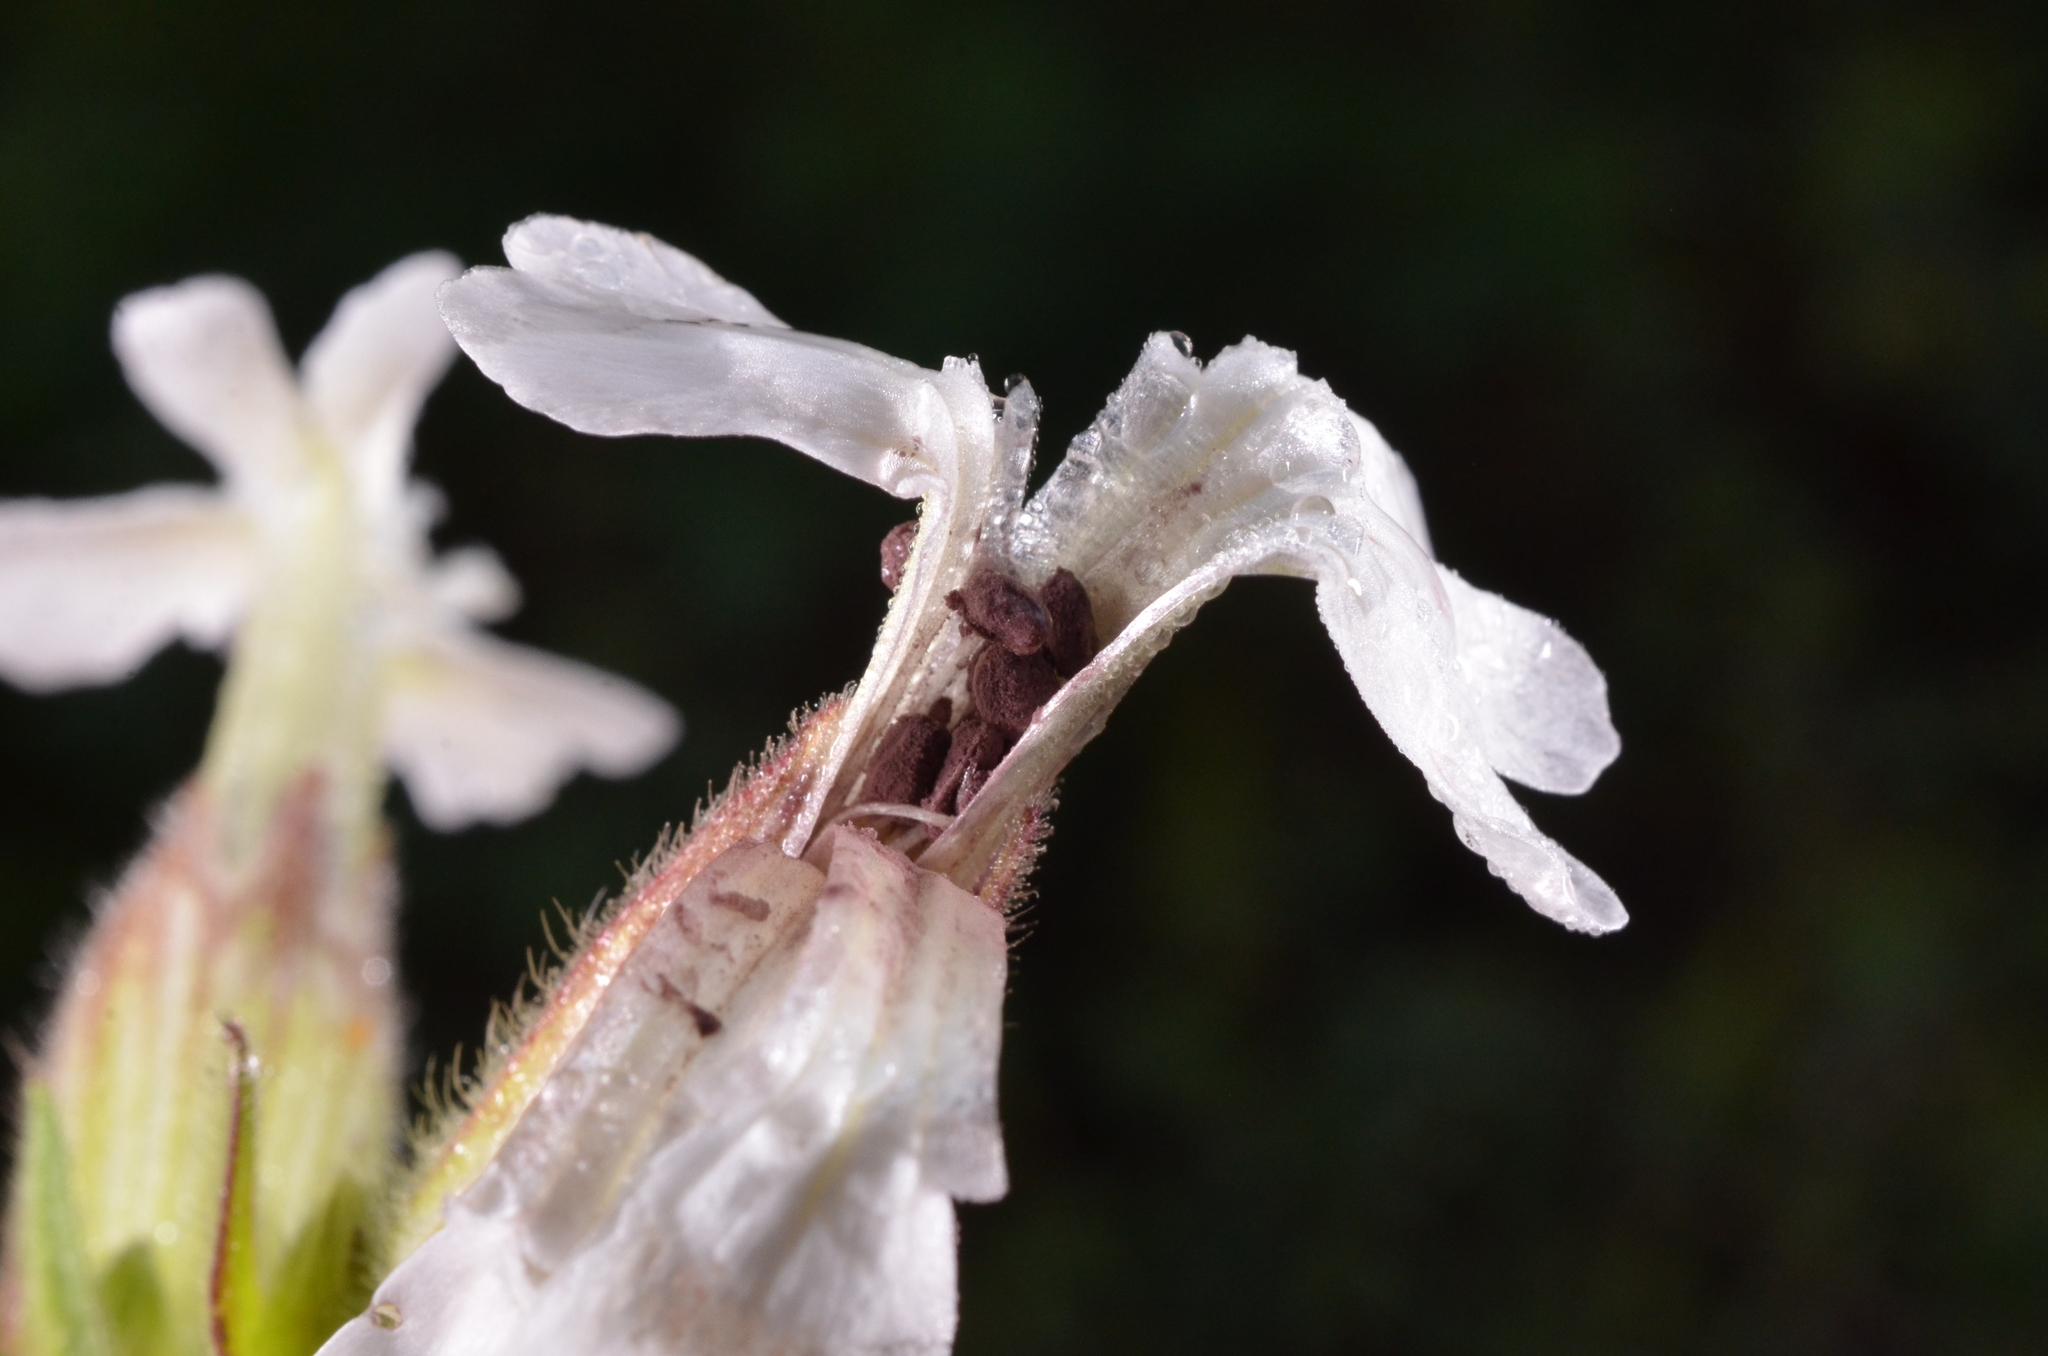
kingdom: Fungi
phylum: Basidiomycota
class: Microbotryomycetes
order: Microbotryales
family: Microbotryaceae
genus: Microbotryum
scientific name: Microbotryum lychnidis-dioicae
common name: Campion anther smut
